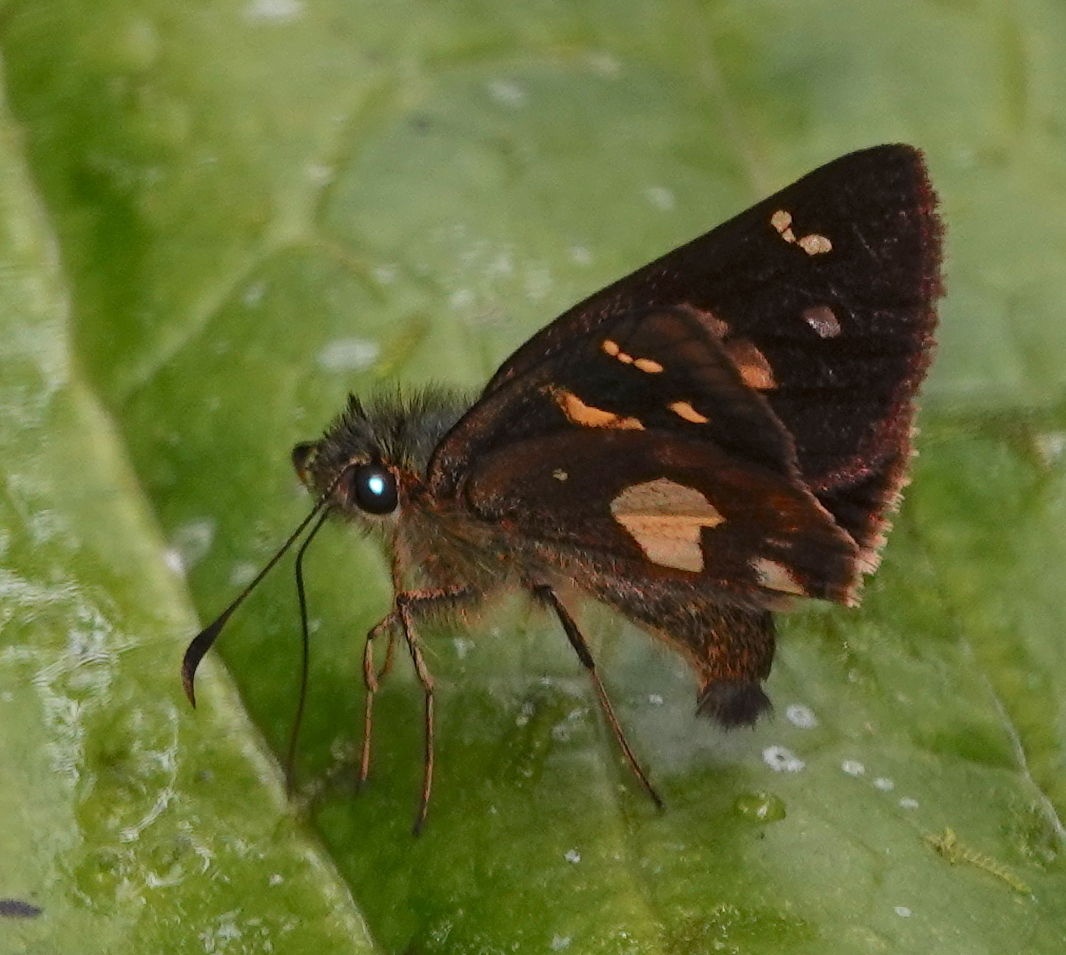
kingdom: Animalia
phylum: Arthropoda
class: Insecta
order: Lepidoptera
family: Hesperiidae
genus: Dalla
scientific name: Dalla
